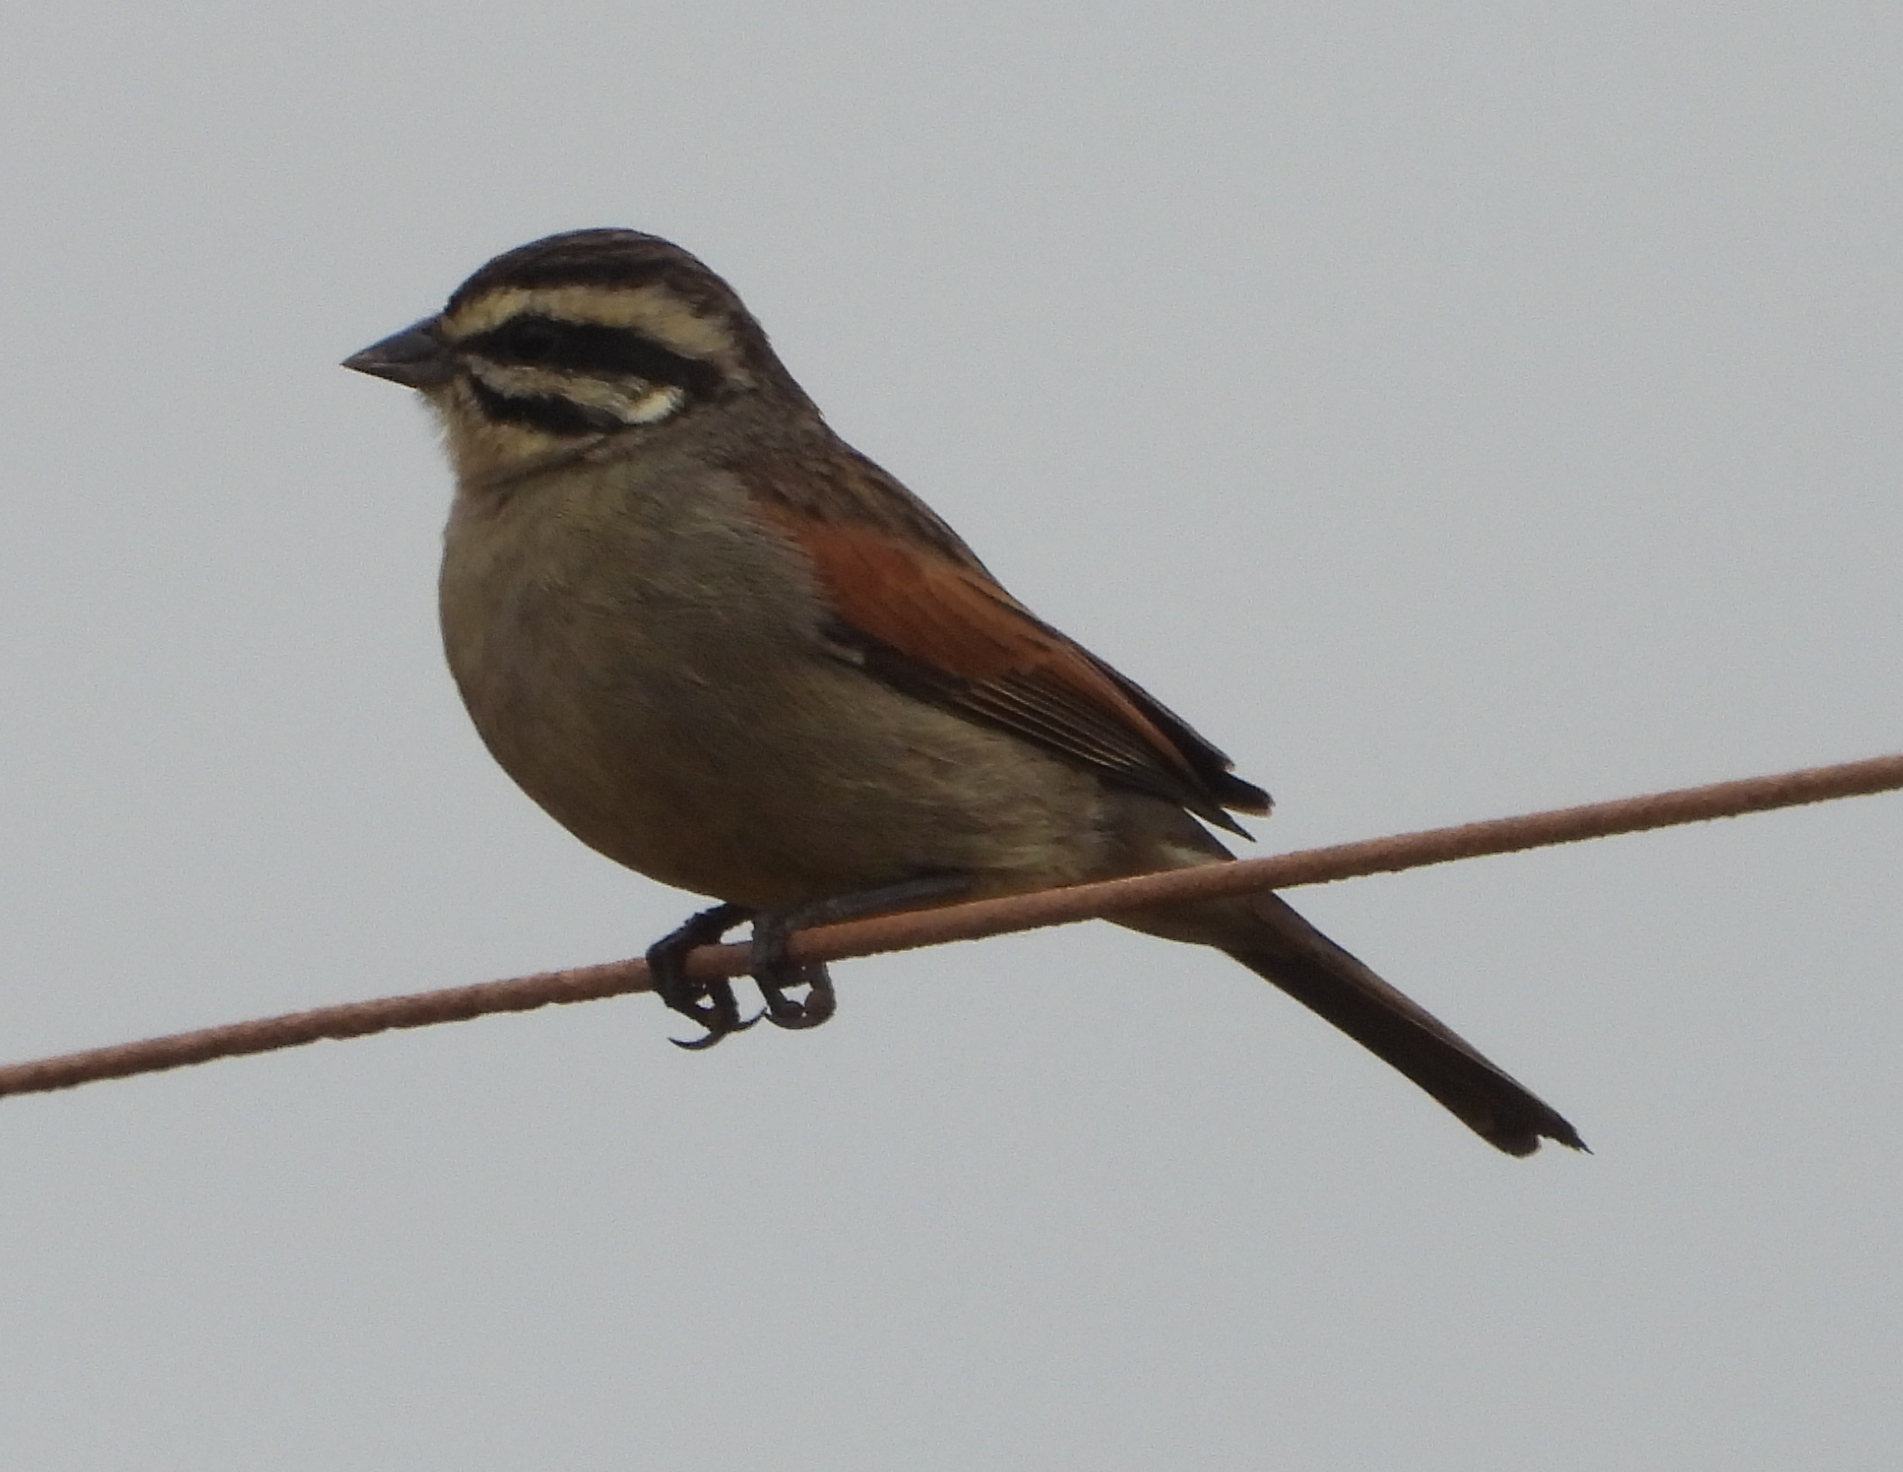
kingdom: Animalia
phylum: Chordata
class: Aves
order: Passeriformes
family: Emberizidae
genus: Emberiza
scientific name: Emberiza capensis
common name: Cape bunting
